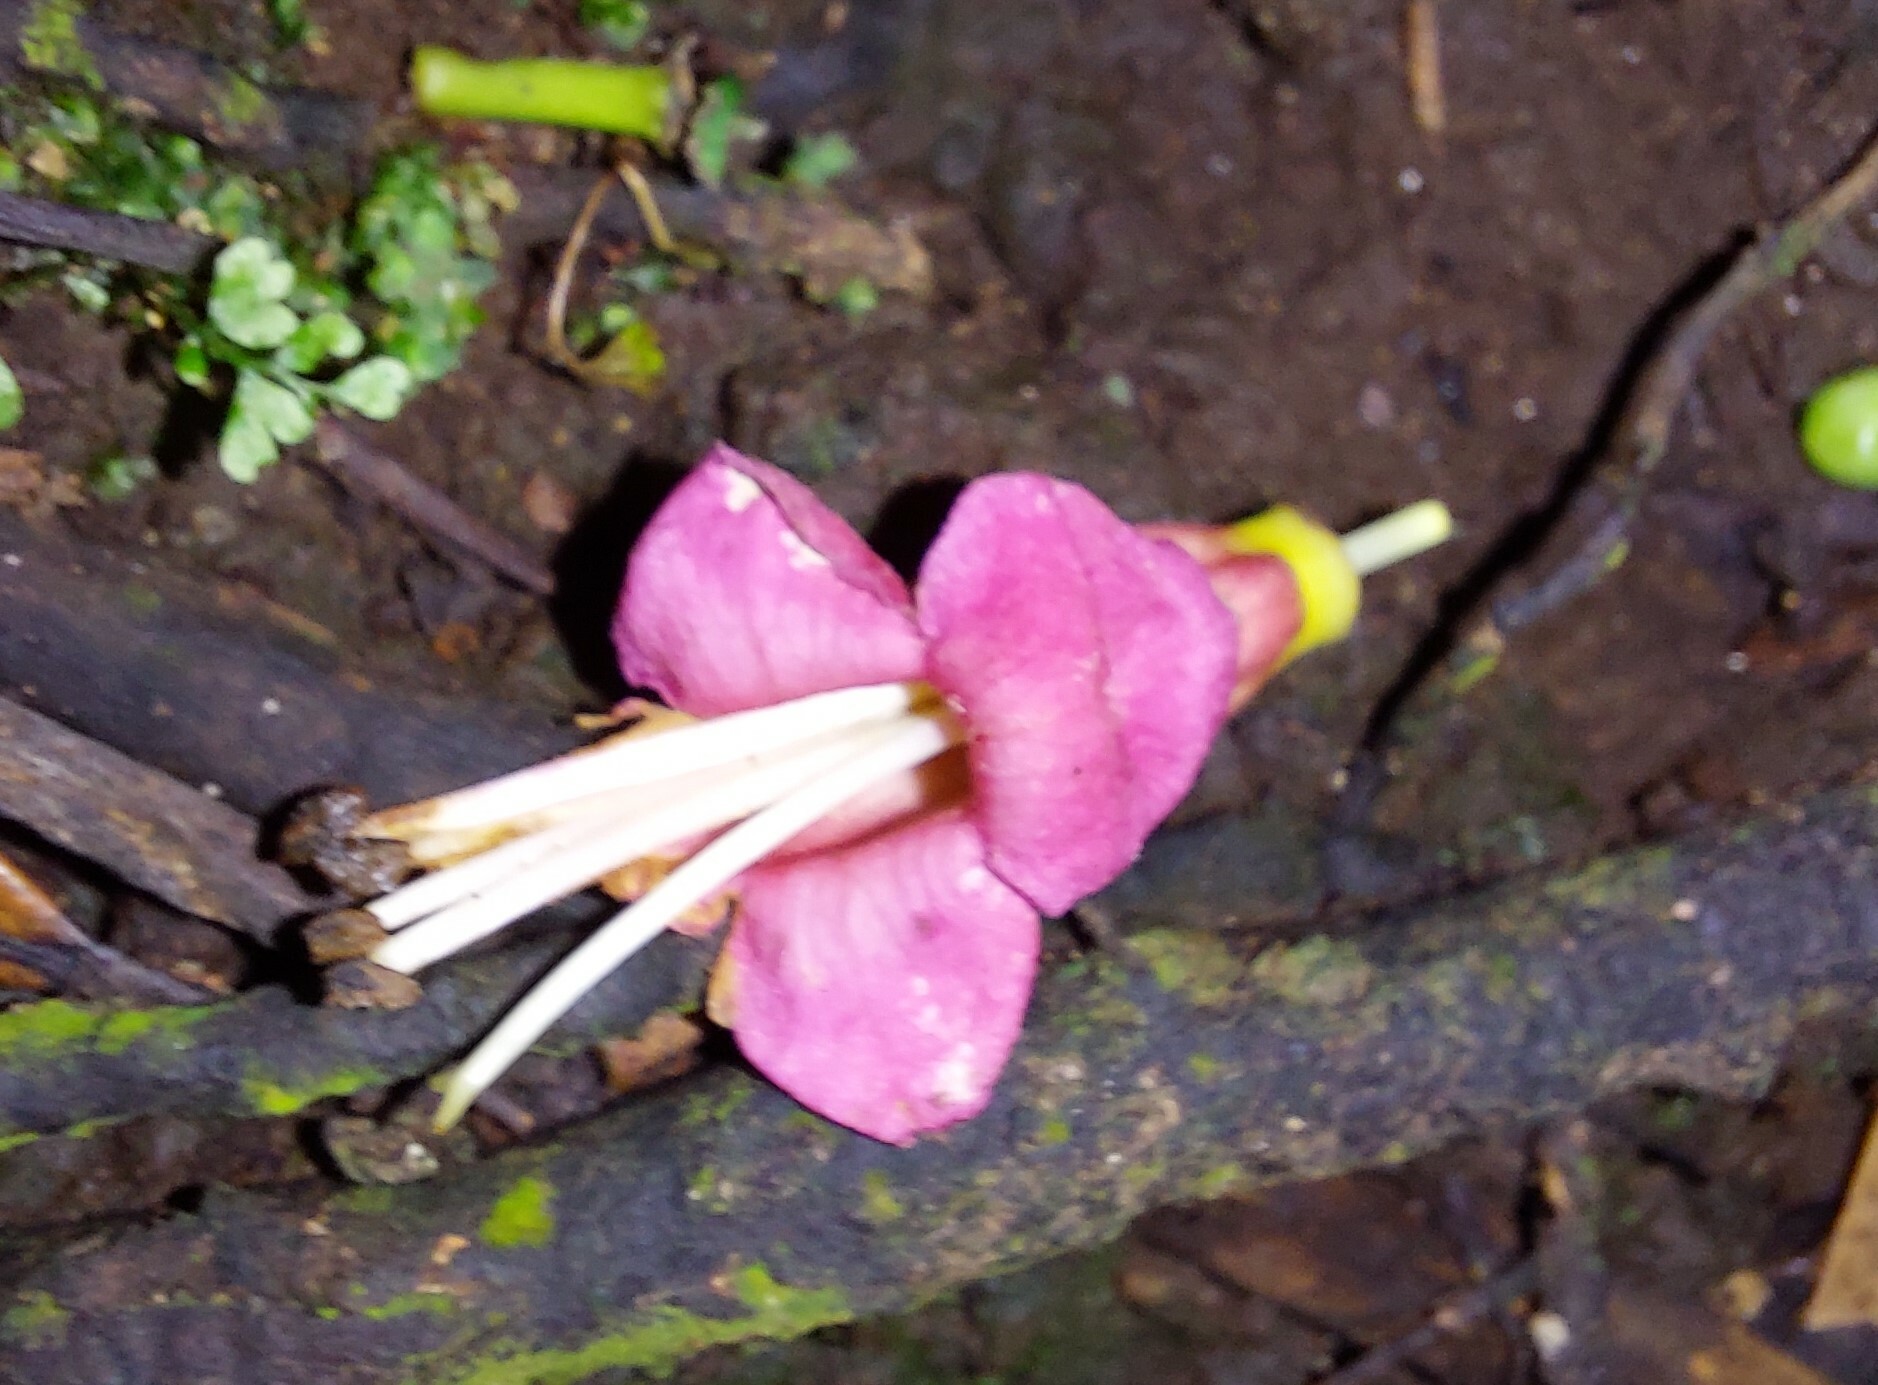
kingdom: Plantae
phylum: Tracheophyta
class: Magnoliopsida
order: Lamiales
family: Lamiaceae
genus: Vitex
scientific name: Vitex lucens
